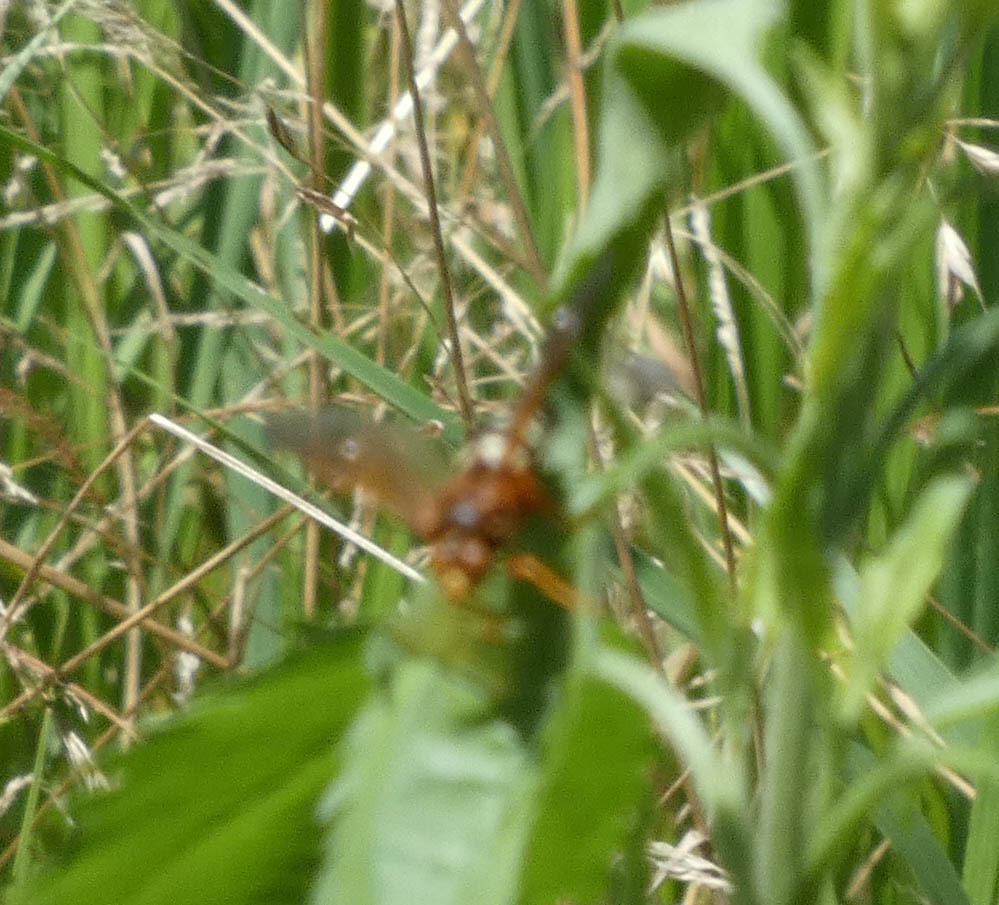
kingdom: Animalia
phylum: Arthropoda
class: Insecta
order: Hymenoptera
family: Crabronidae
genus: Sphecius
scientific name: Sphecius speciosus
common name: Cicada killer
